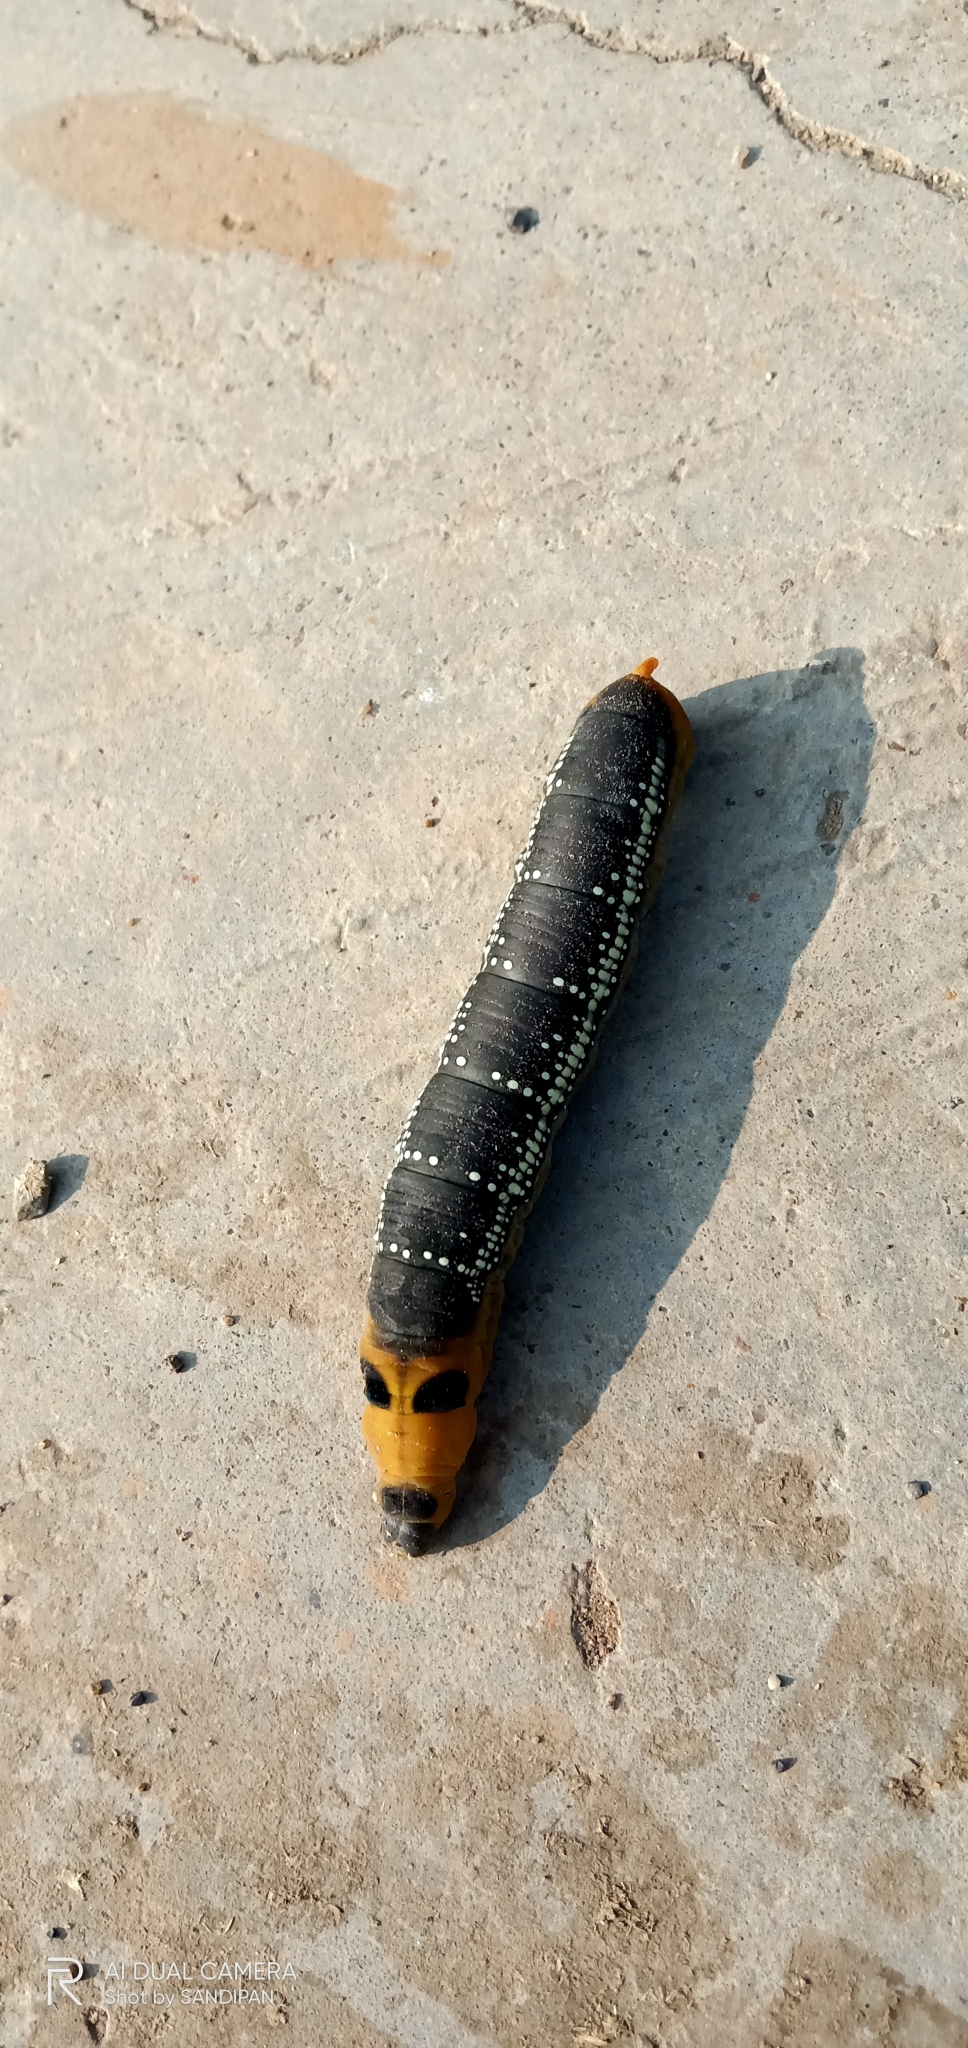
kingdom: Animalia
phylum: Arthropoda
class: Insecta
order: Lepidoptera
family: Sphingidae
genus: Daphnis
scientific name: Daphnis nerii
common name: Oleander hawk-moth
